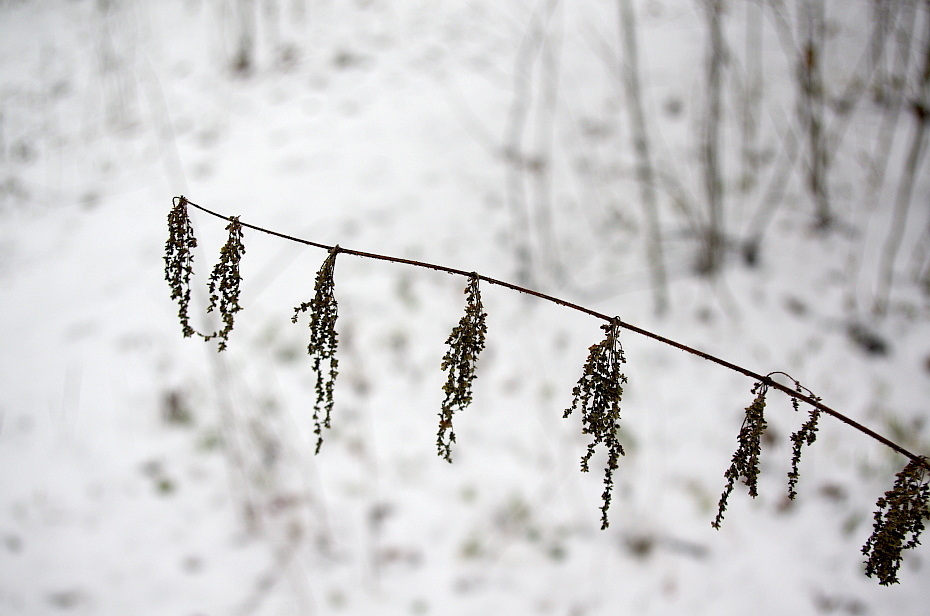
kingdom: Plantae
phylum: Tracheophyta
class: Magnoliopsida
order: Rosales
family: Urticaceae
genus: Urtica
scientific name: Urtica dioica
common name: Common nettle
